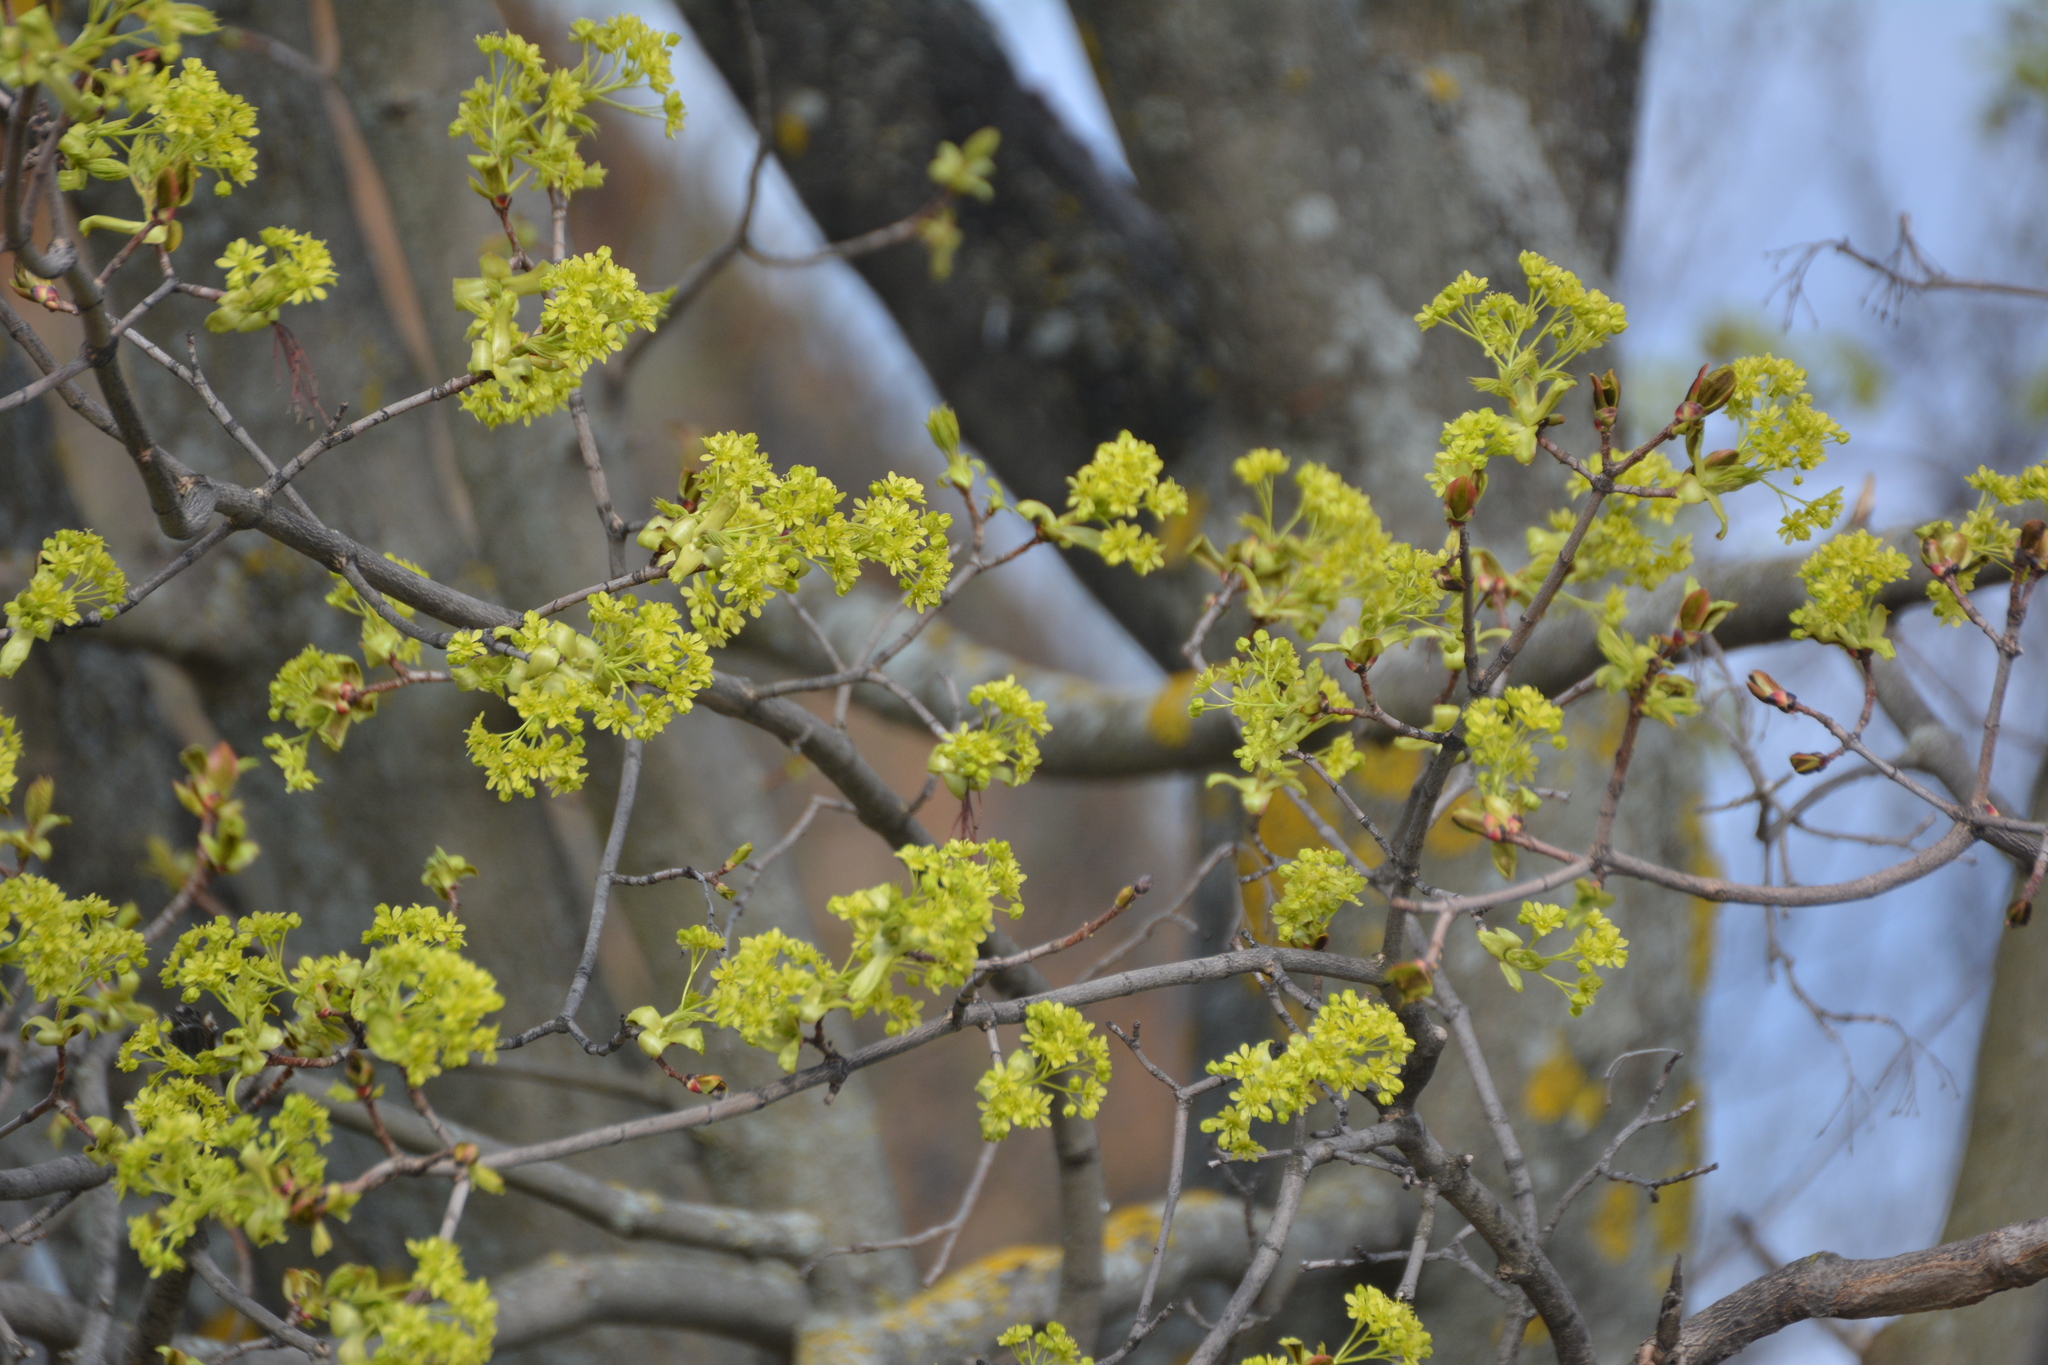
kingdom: Plantae
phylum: Tracheophyta
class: Magnoliopsida
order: Sapindales
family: Sapindaceae
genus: Acer
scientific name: Acer platanoides
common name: Norway maple
